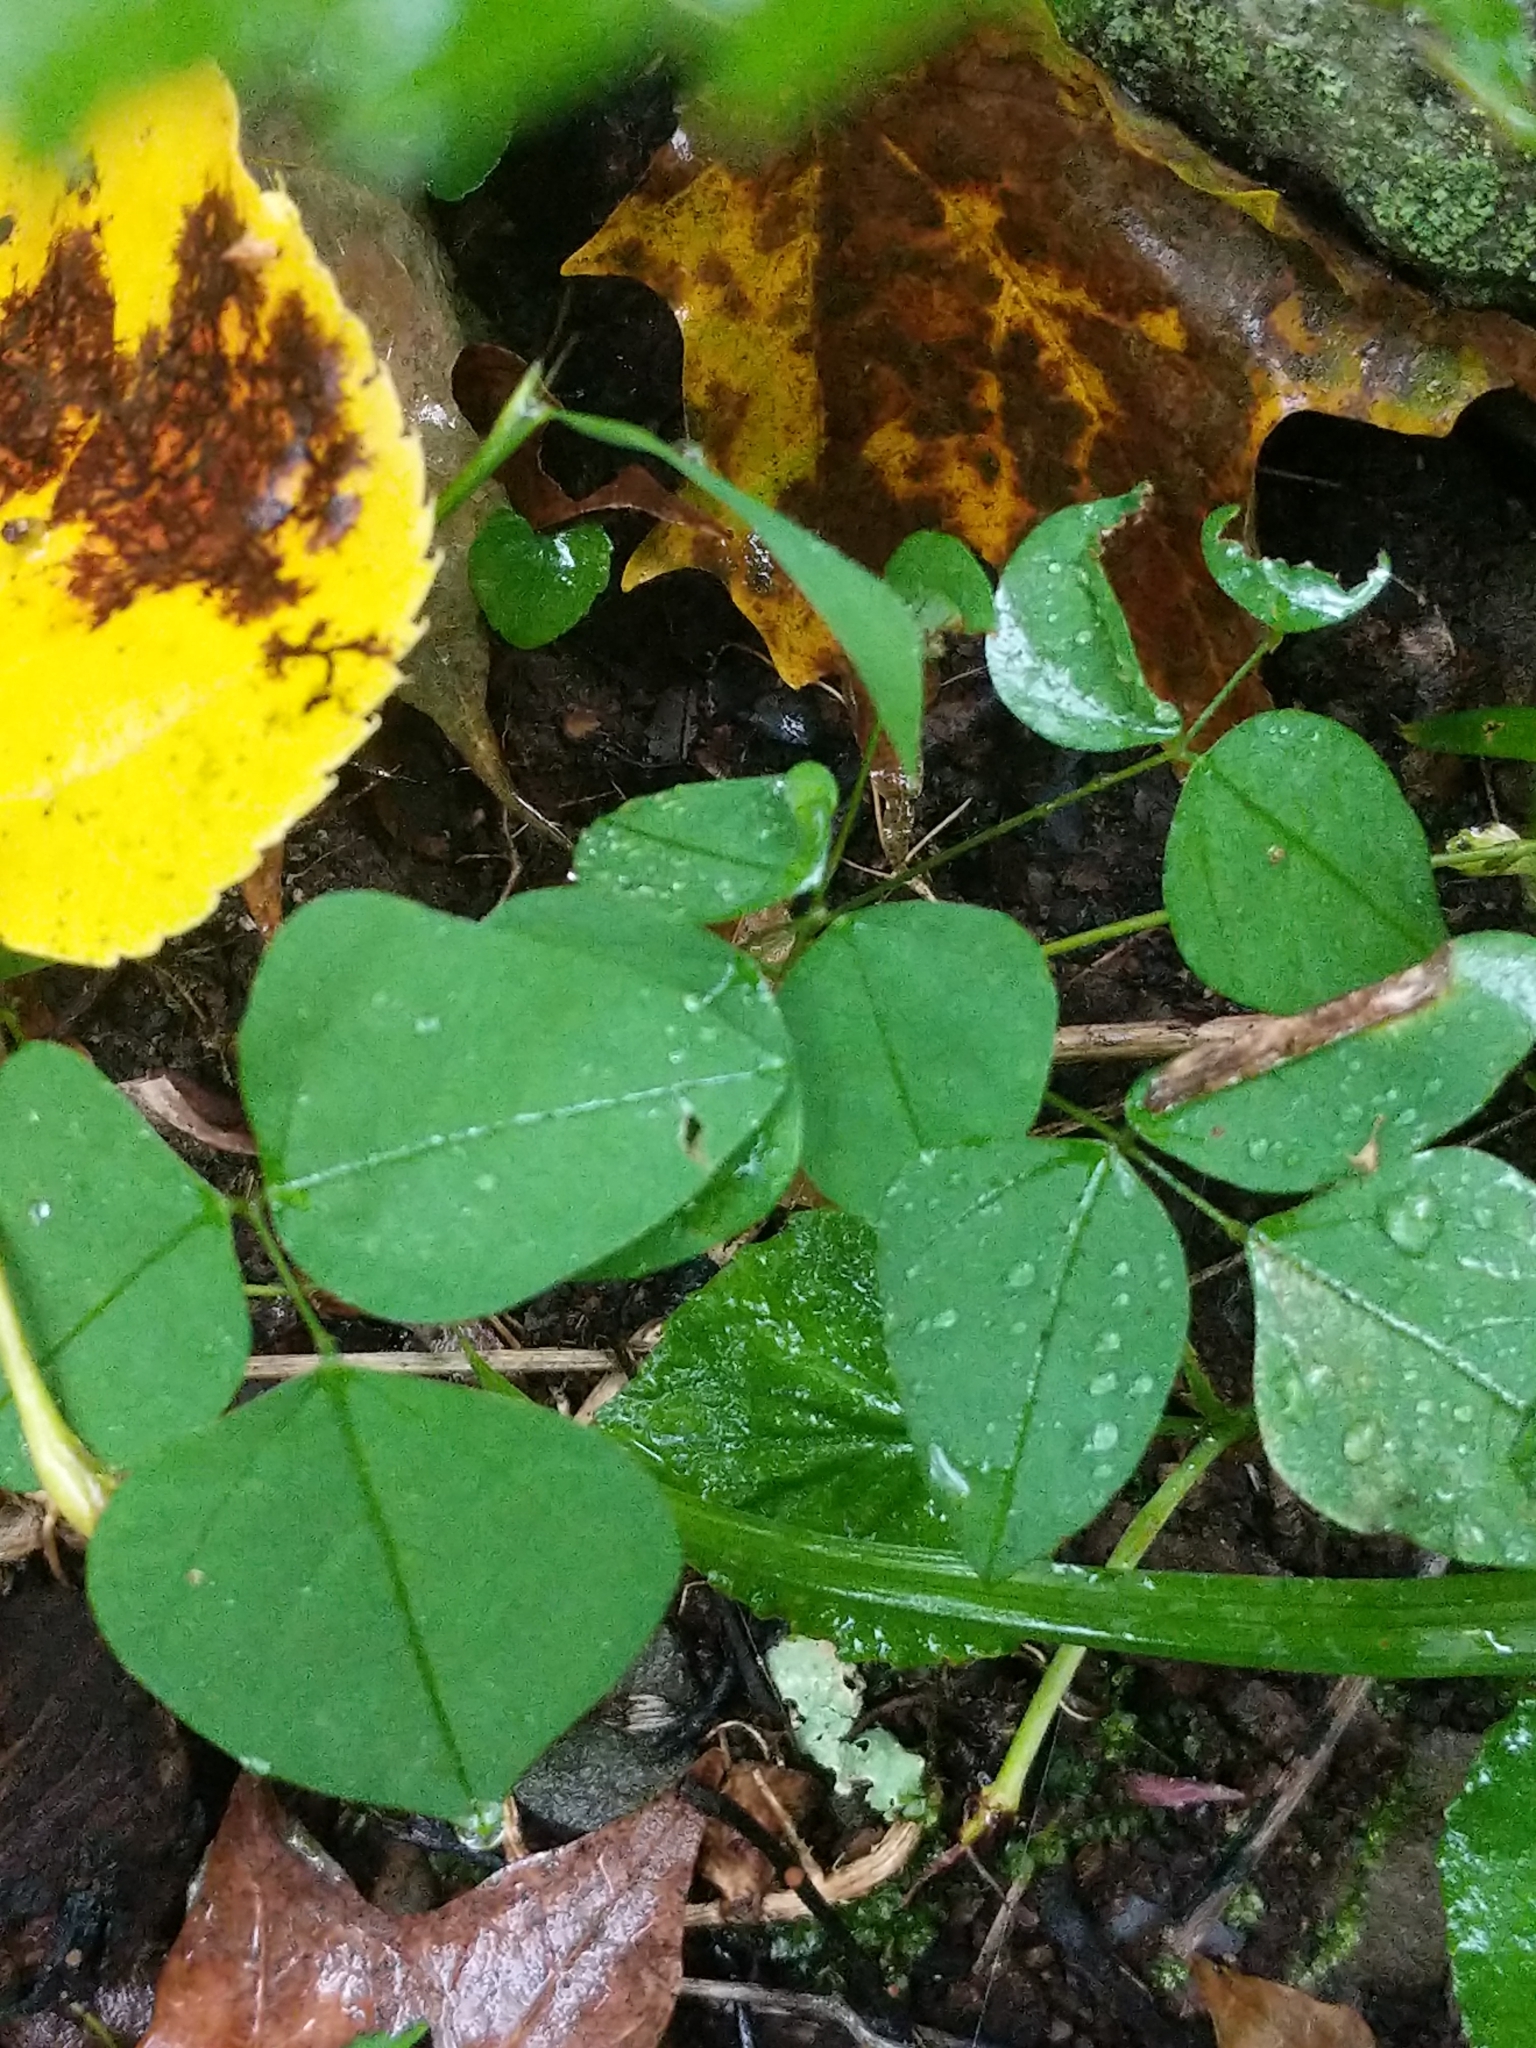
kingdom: Plantae
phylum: Tracheophyta
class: Magnoliopsida
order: Fabales
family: Fabaceae
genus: Amphicarpaea
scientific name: Amphicarpaea bracteata
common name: American hog peanut
